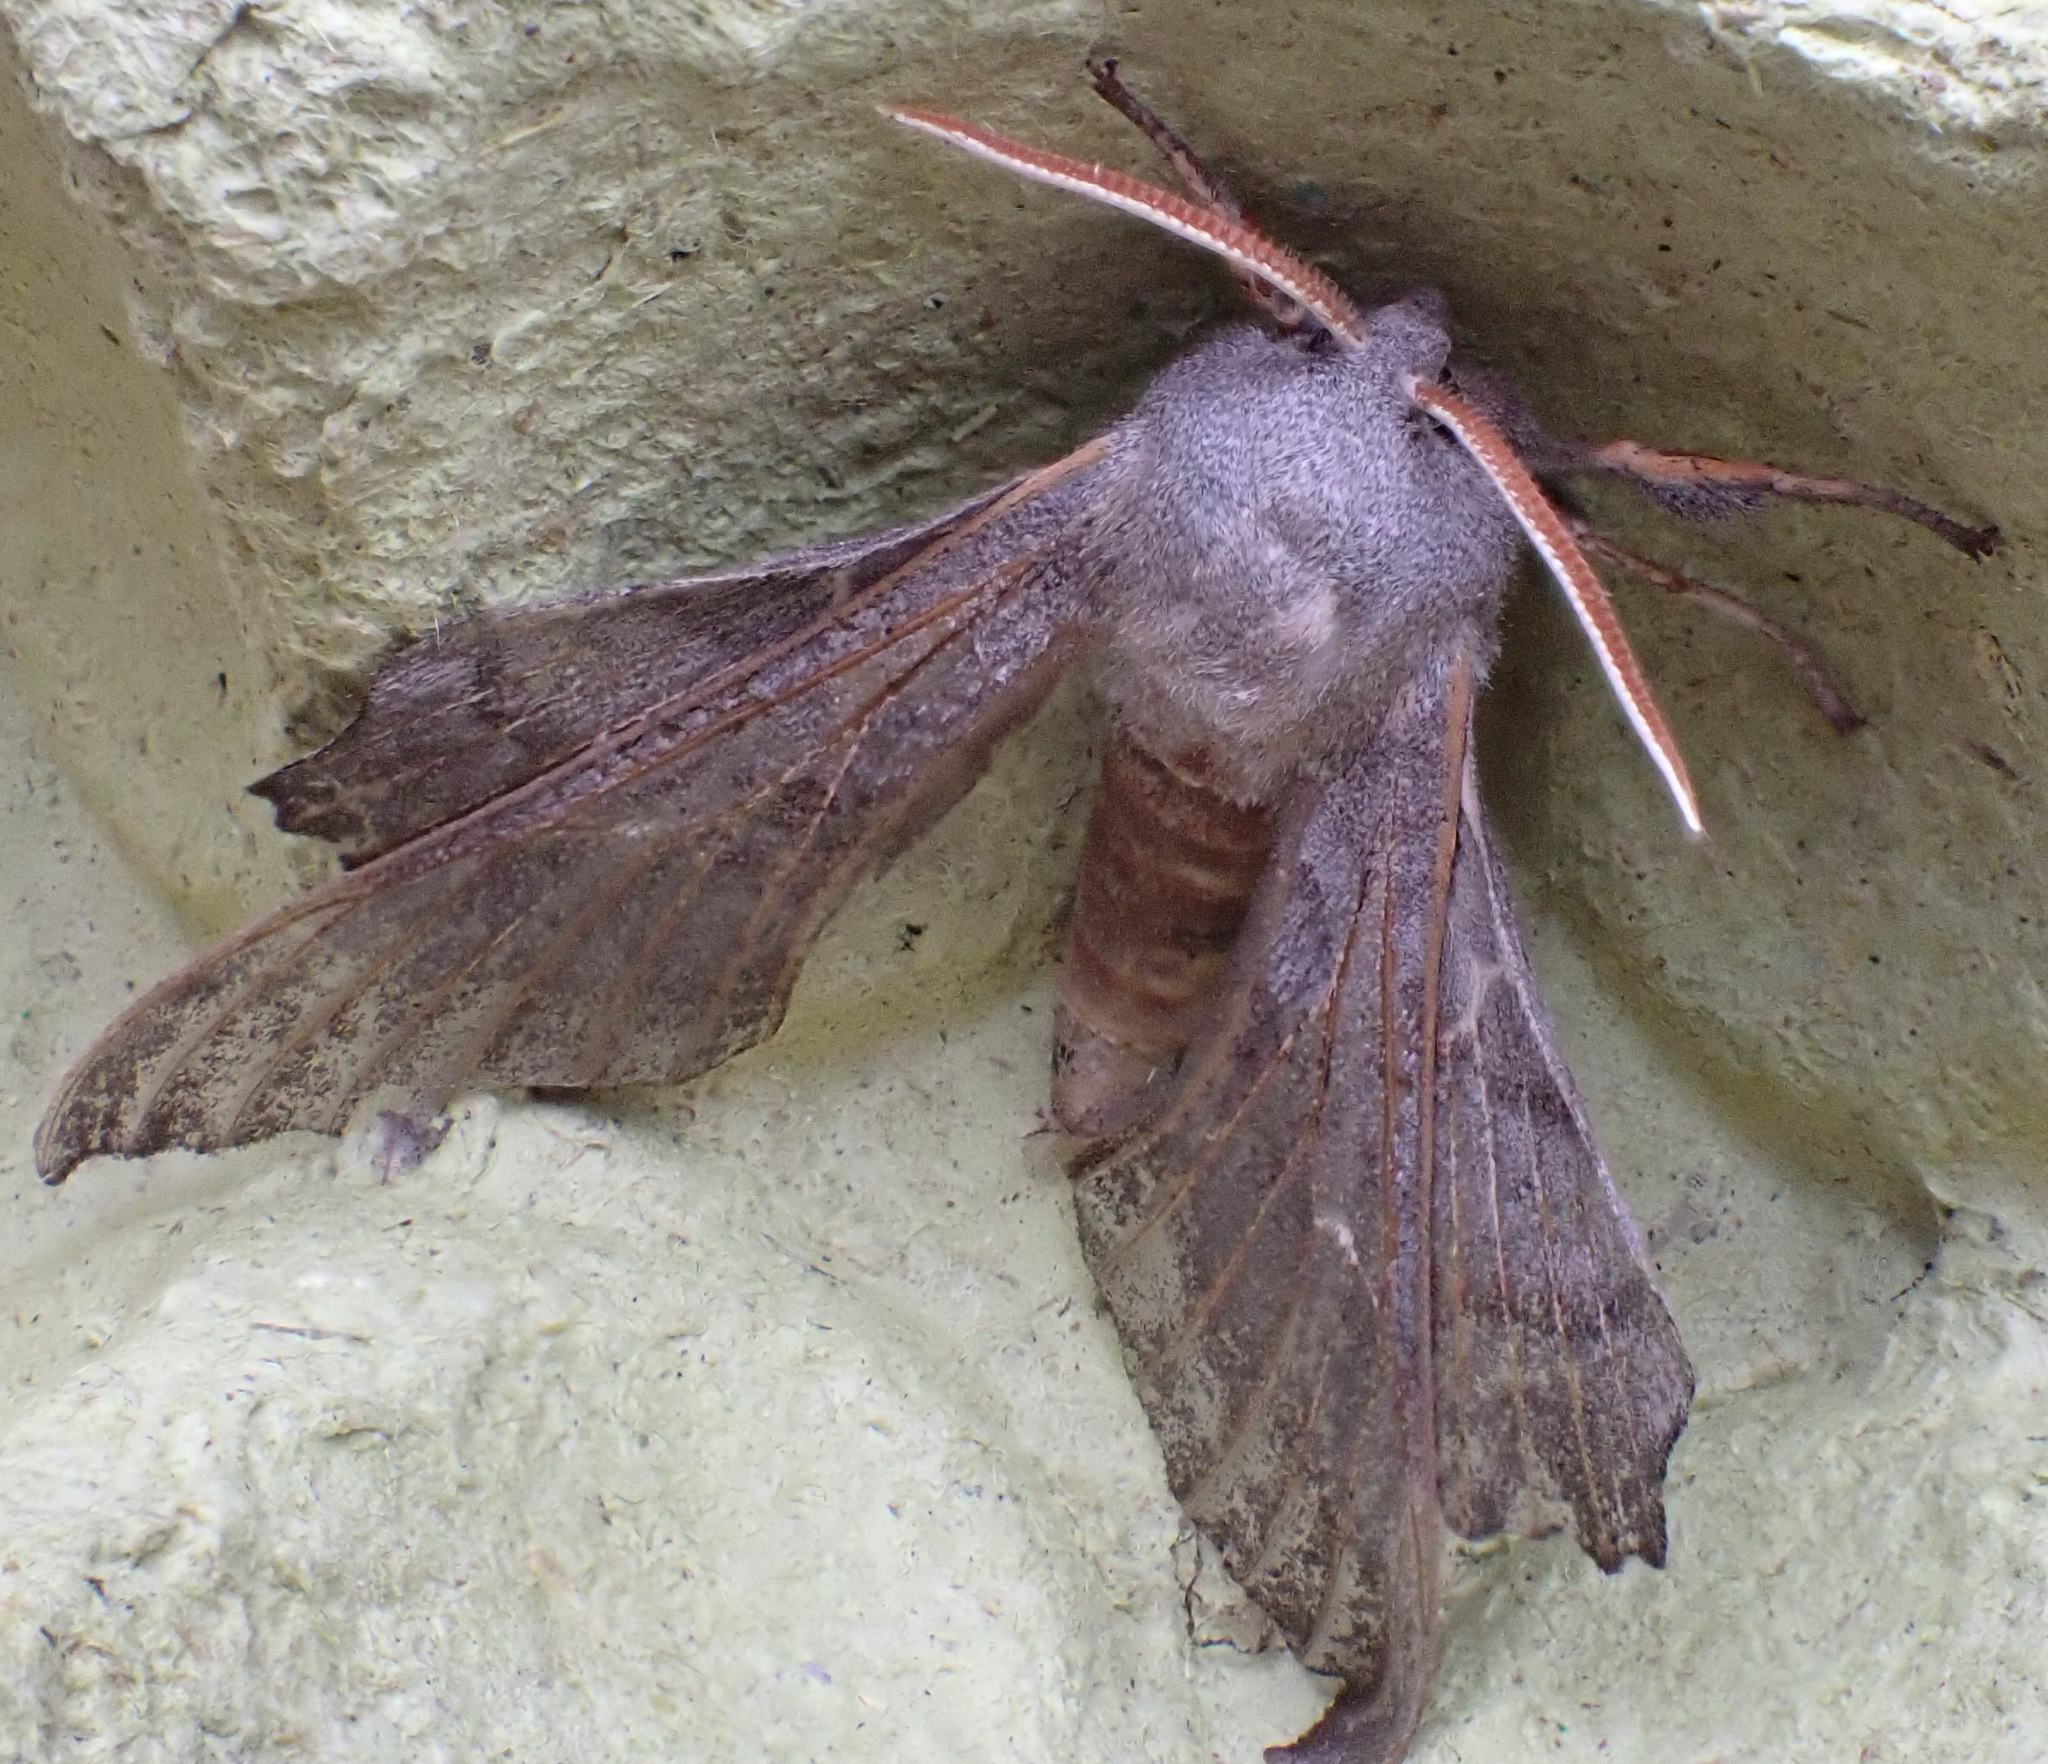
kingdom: Animalia
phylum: Arthropoda
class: Insecta
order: Lepidoptera
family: Sphingidae
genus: Laothoe
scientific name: Laothoe populi
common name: Poplar hawk-moth
